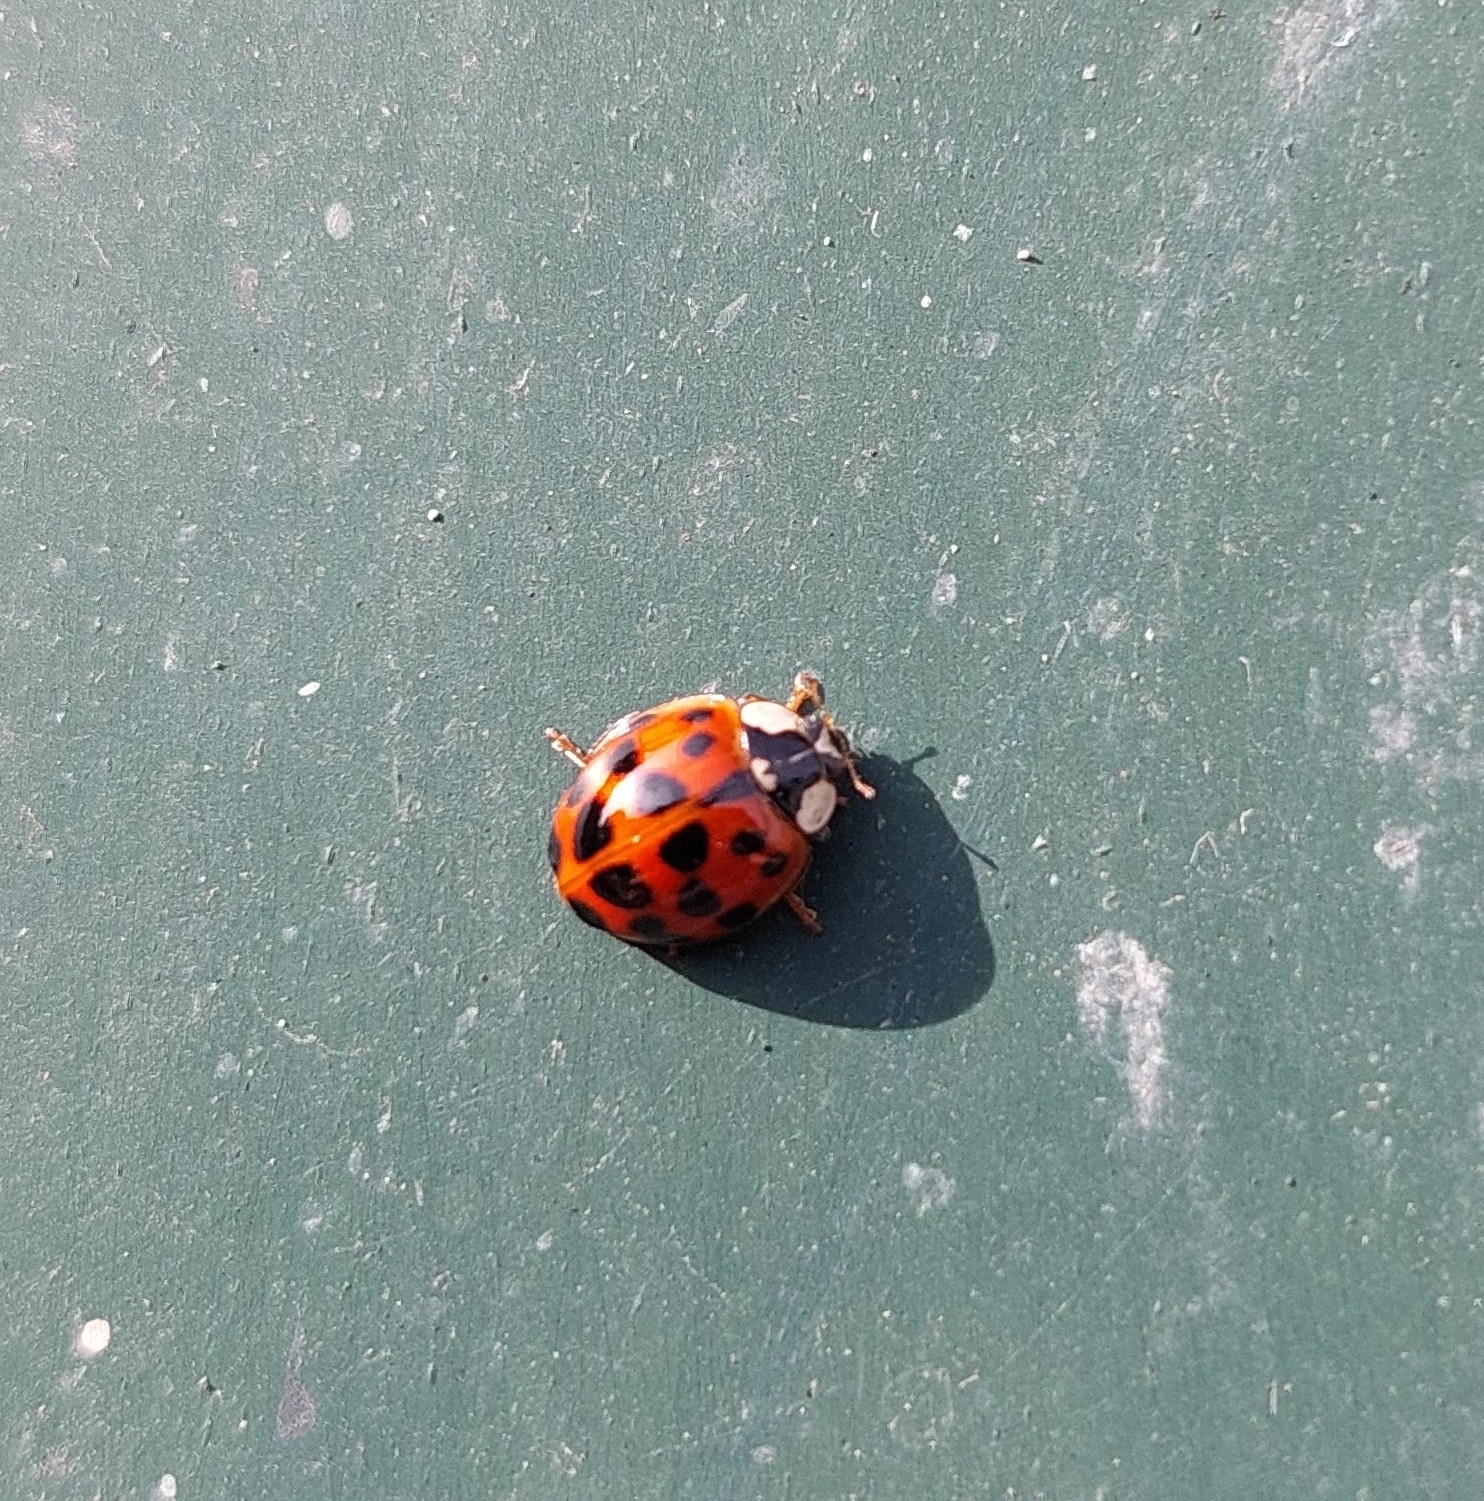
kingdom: Animalia
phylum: Arthropoda
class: Insecta
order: Coleoptera
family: Coccinellidae
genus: Harmonia
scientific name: Harmonia axyridis
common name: Harlequin ladybird
